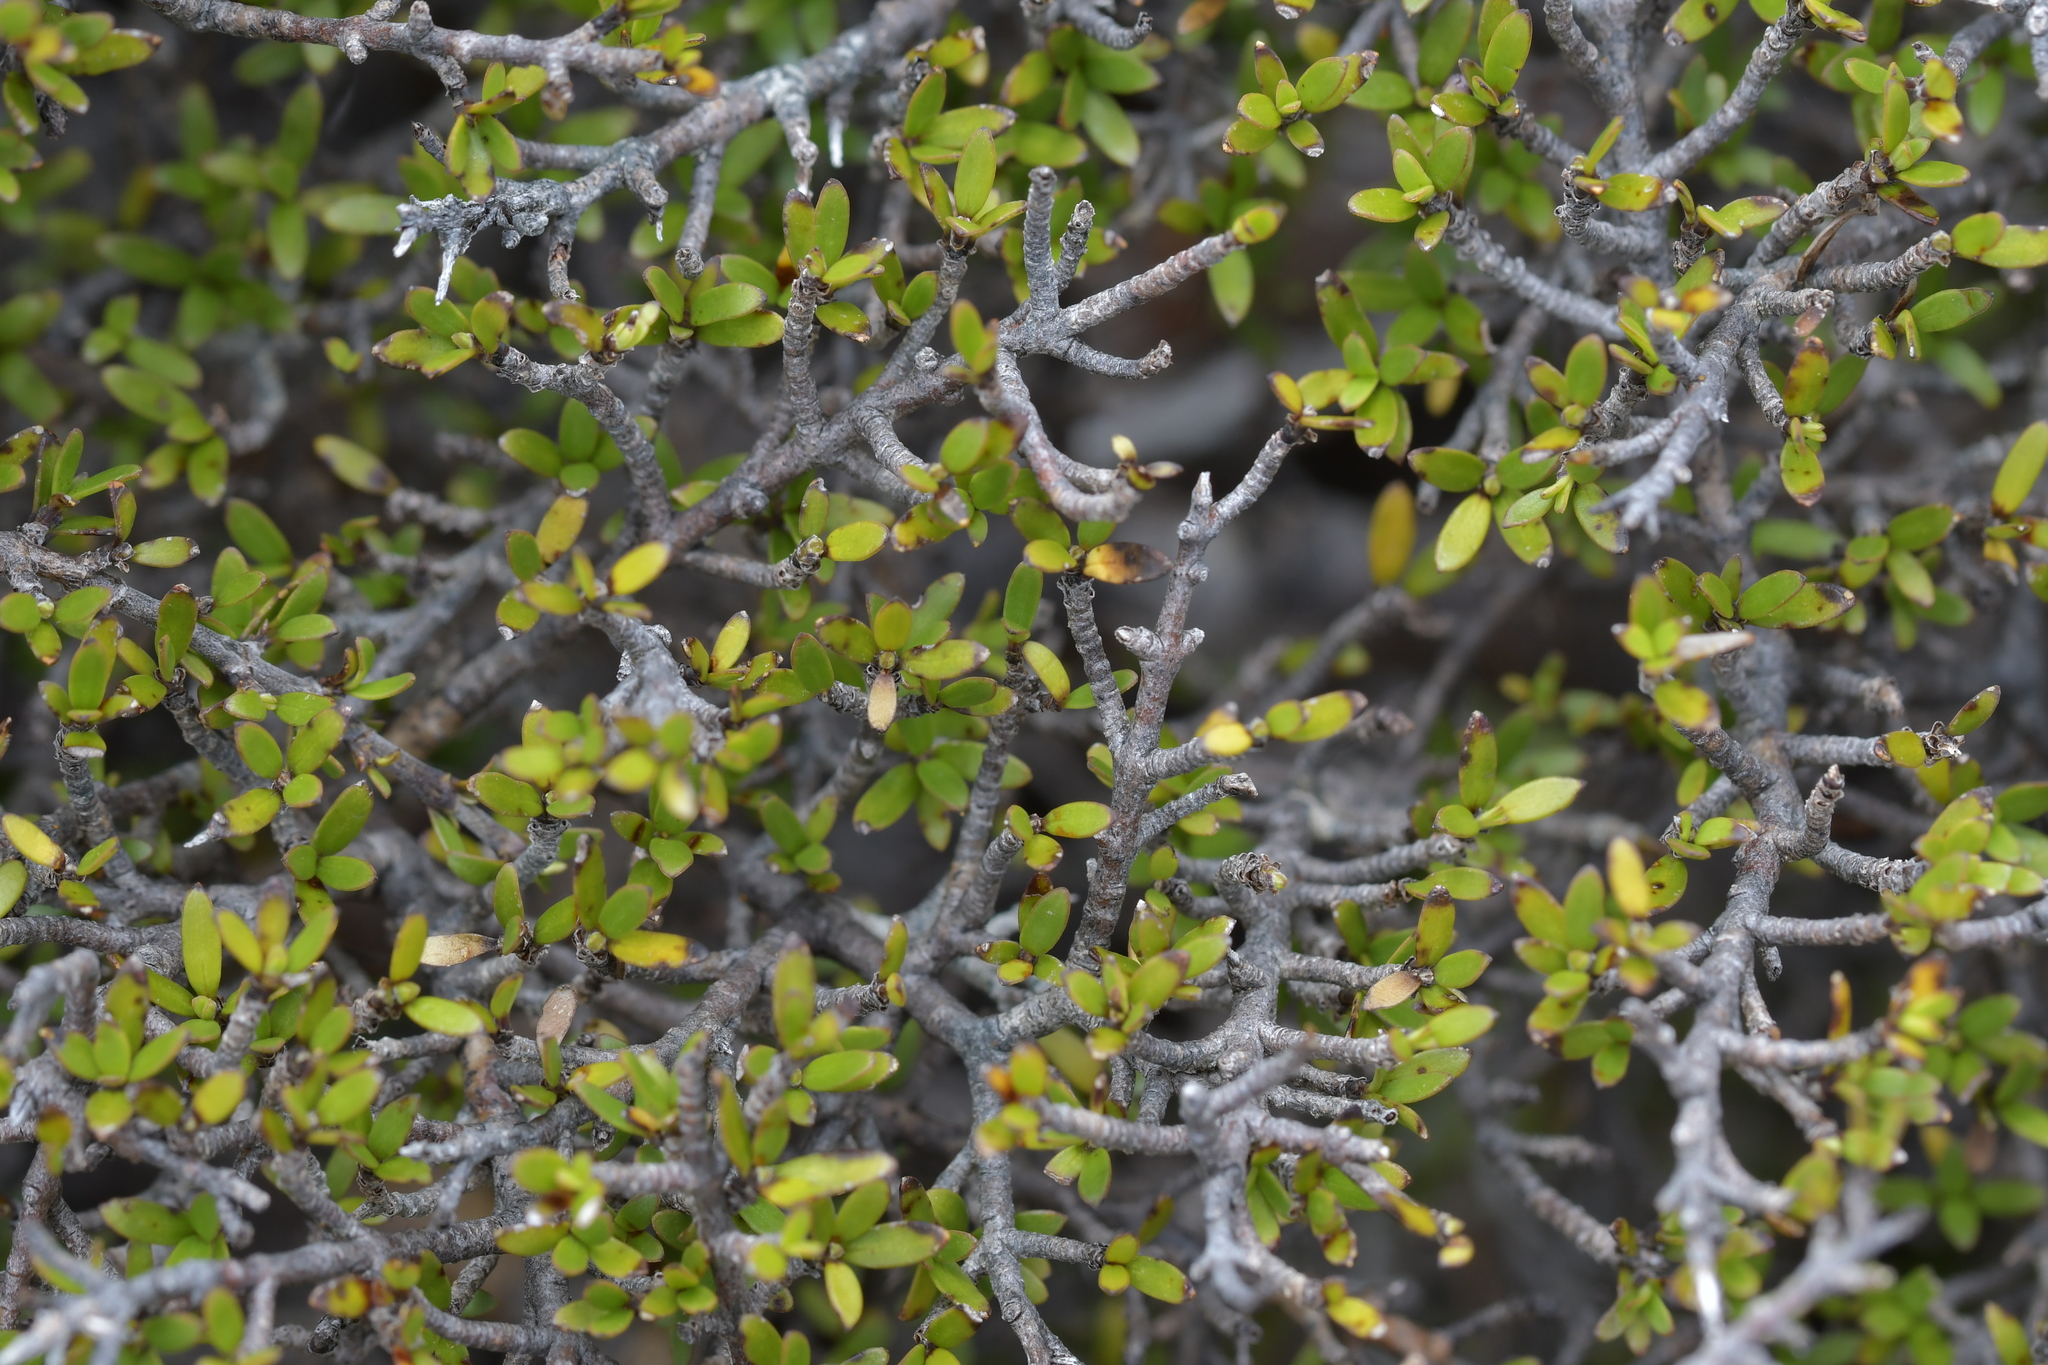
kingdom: Plantae
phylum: Tracheophyta
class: Magnoliopsida
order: Gentianales
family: Rubiaceae
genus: Coprosma
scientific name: Coprosma propinqua
